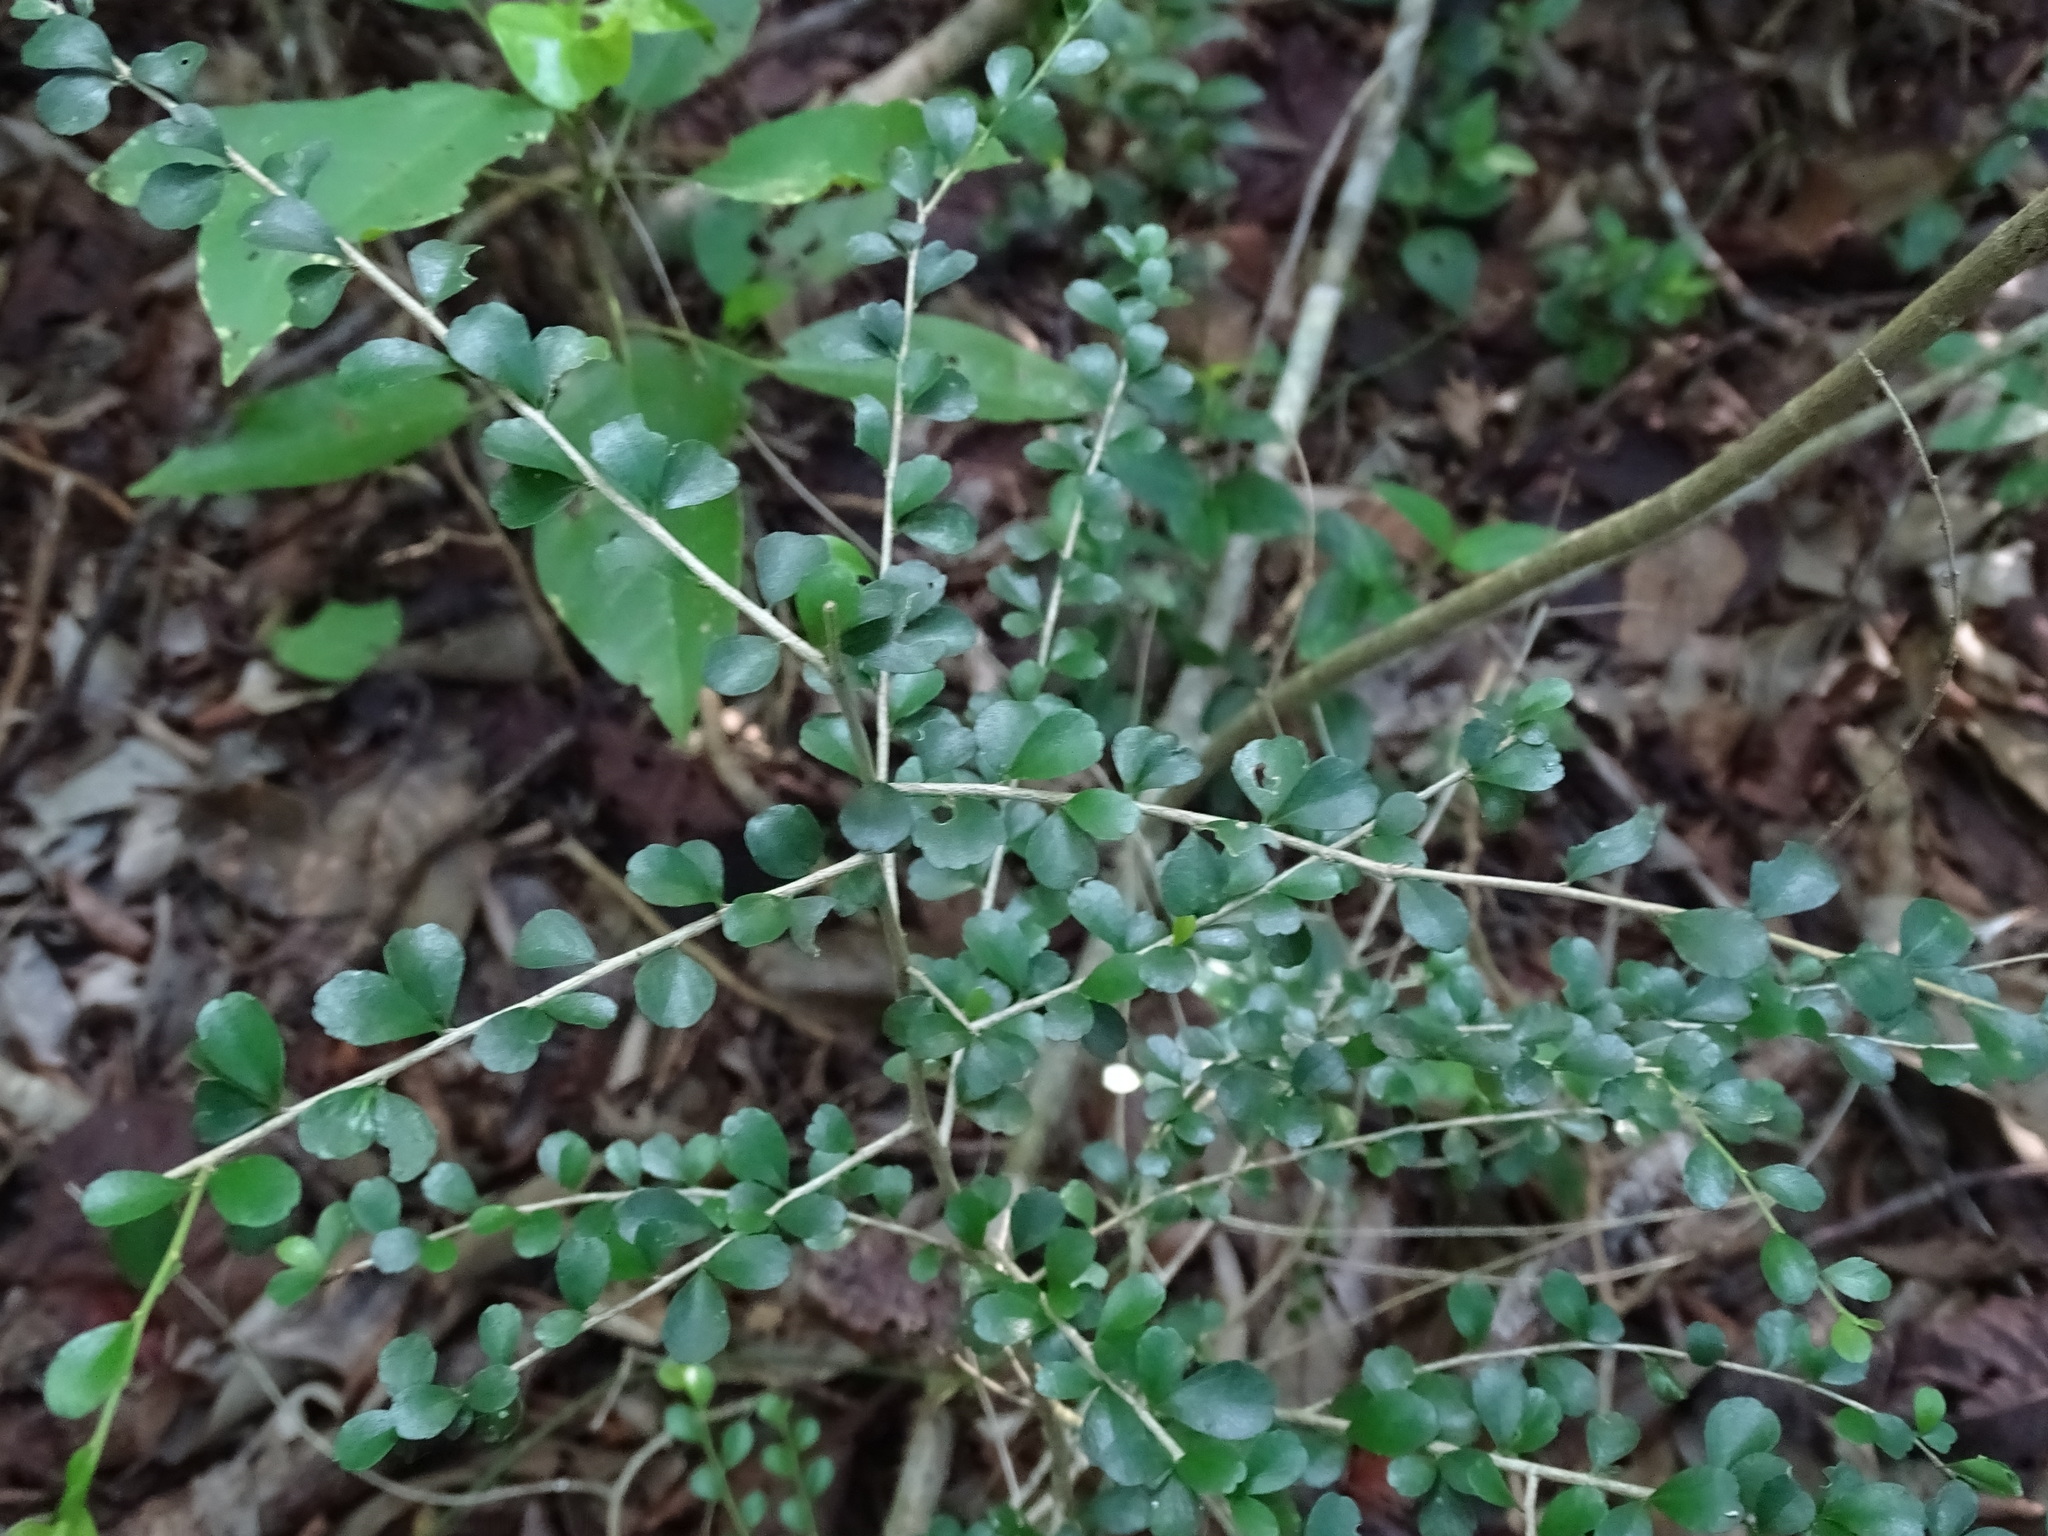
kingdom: Plantae
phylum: Tracheophyta
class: Magnoliopsida
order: Malpighiales
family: Salicaceae
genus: Casearia
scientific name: Casearia emarginata
